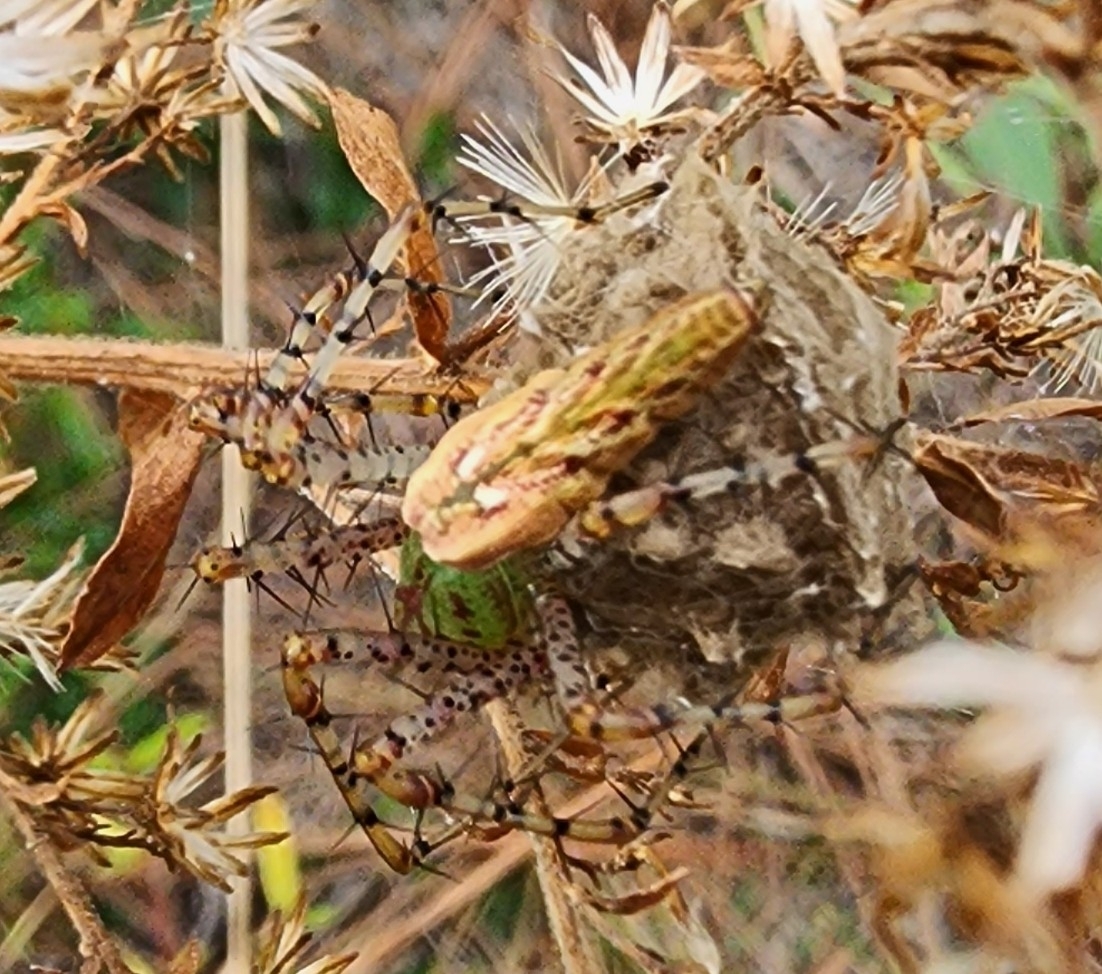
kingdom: Animalia
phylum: Arthropoda
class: Arachnida
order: Araneae
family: Oxyopidae
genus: Peucetia
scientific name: Peucetia viridans
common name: Lynx spiders
